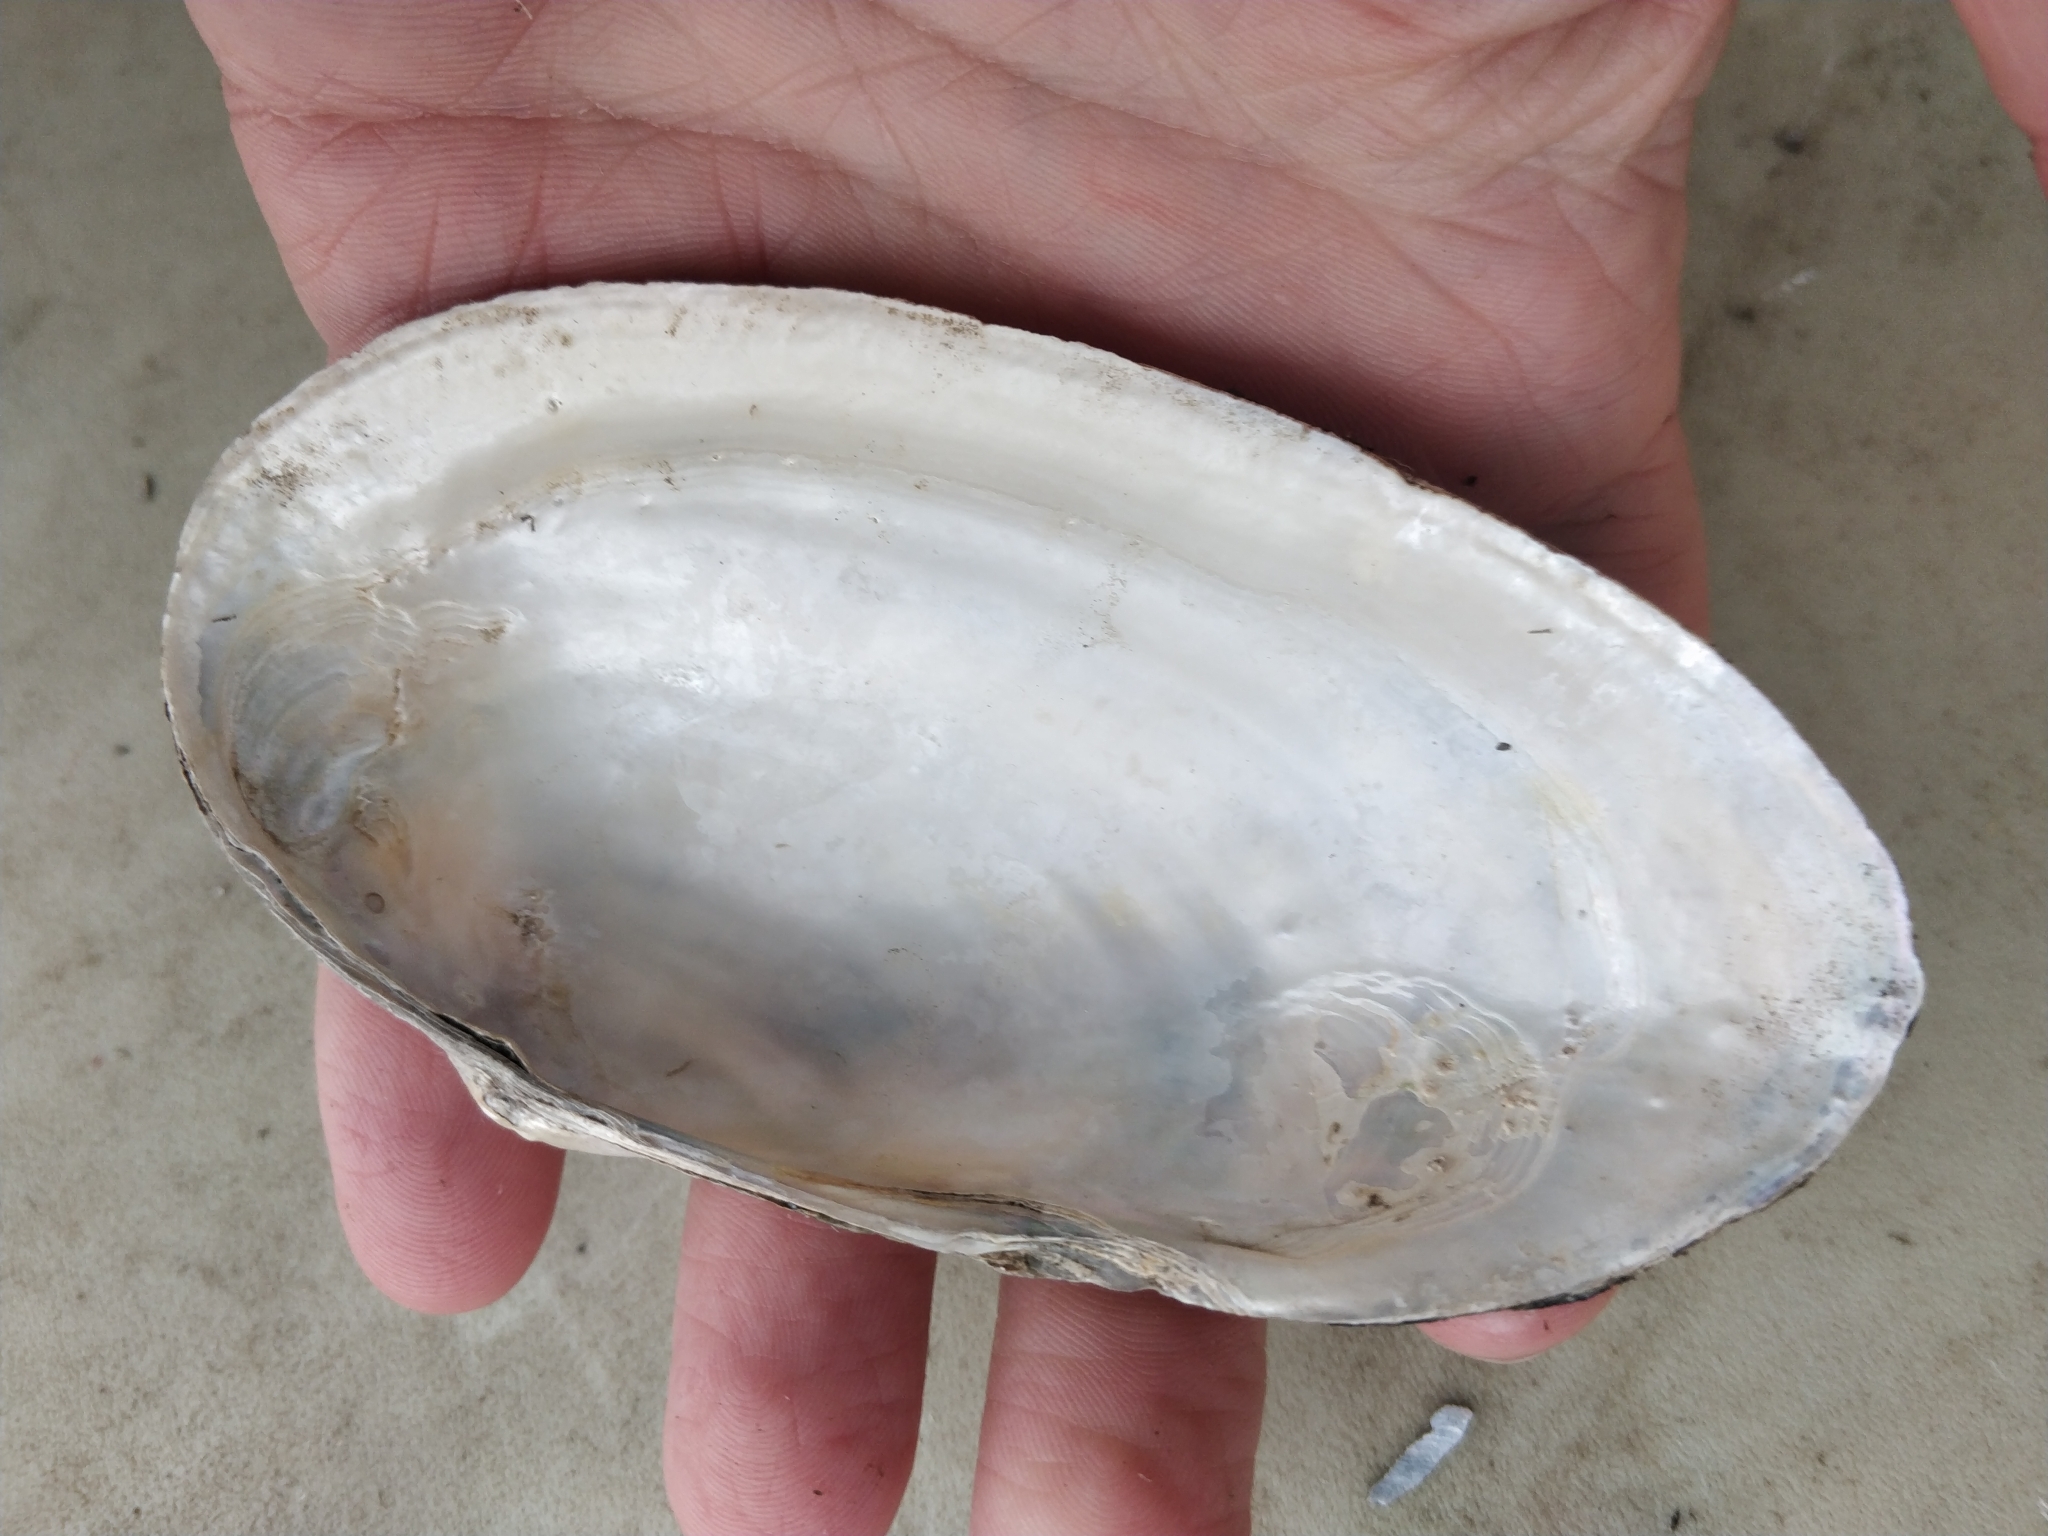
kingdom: Animalia
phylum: Mollusca
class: Bivalvia
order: Unionida
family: Unionidae
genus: Pyganodon
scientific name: Pyganodon grandis
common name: Giant floater
